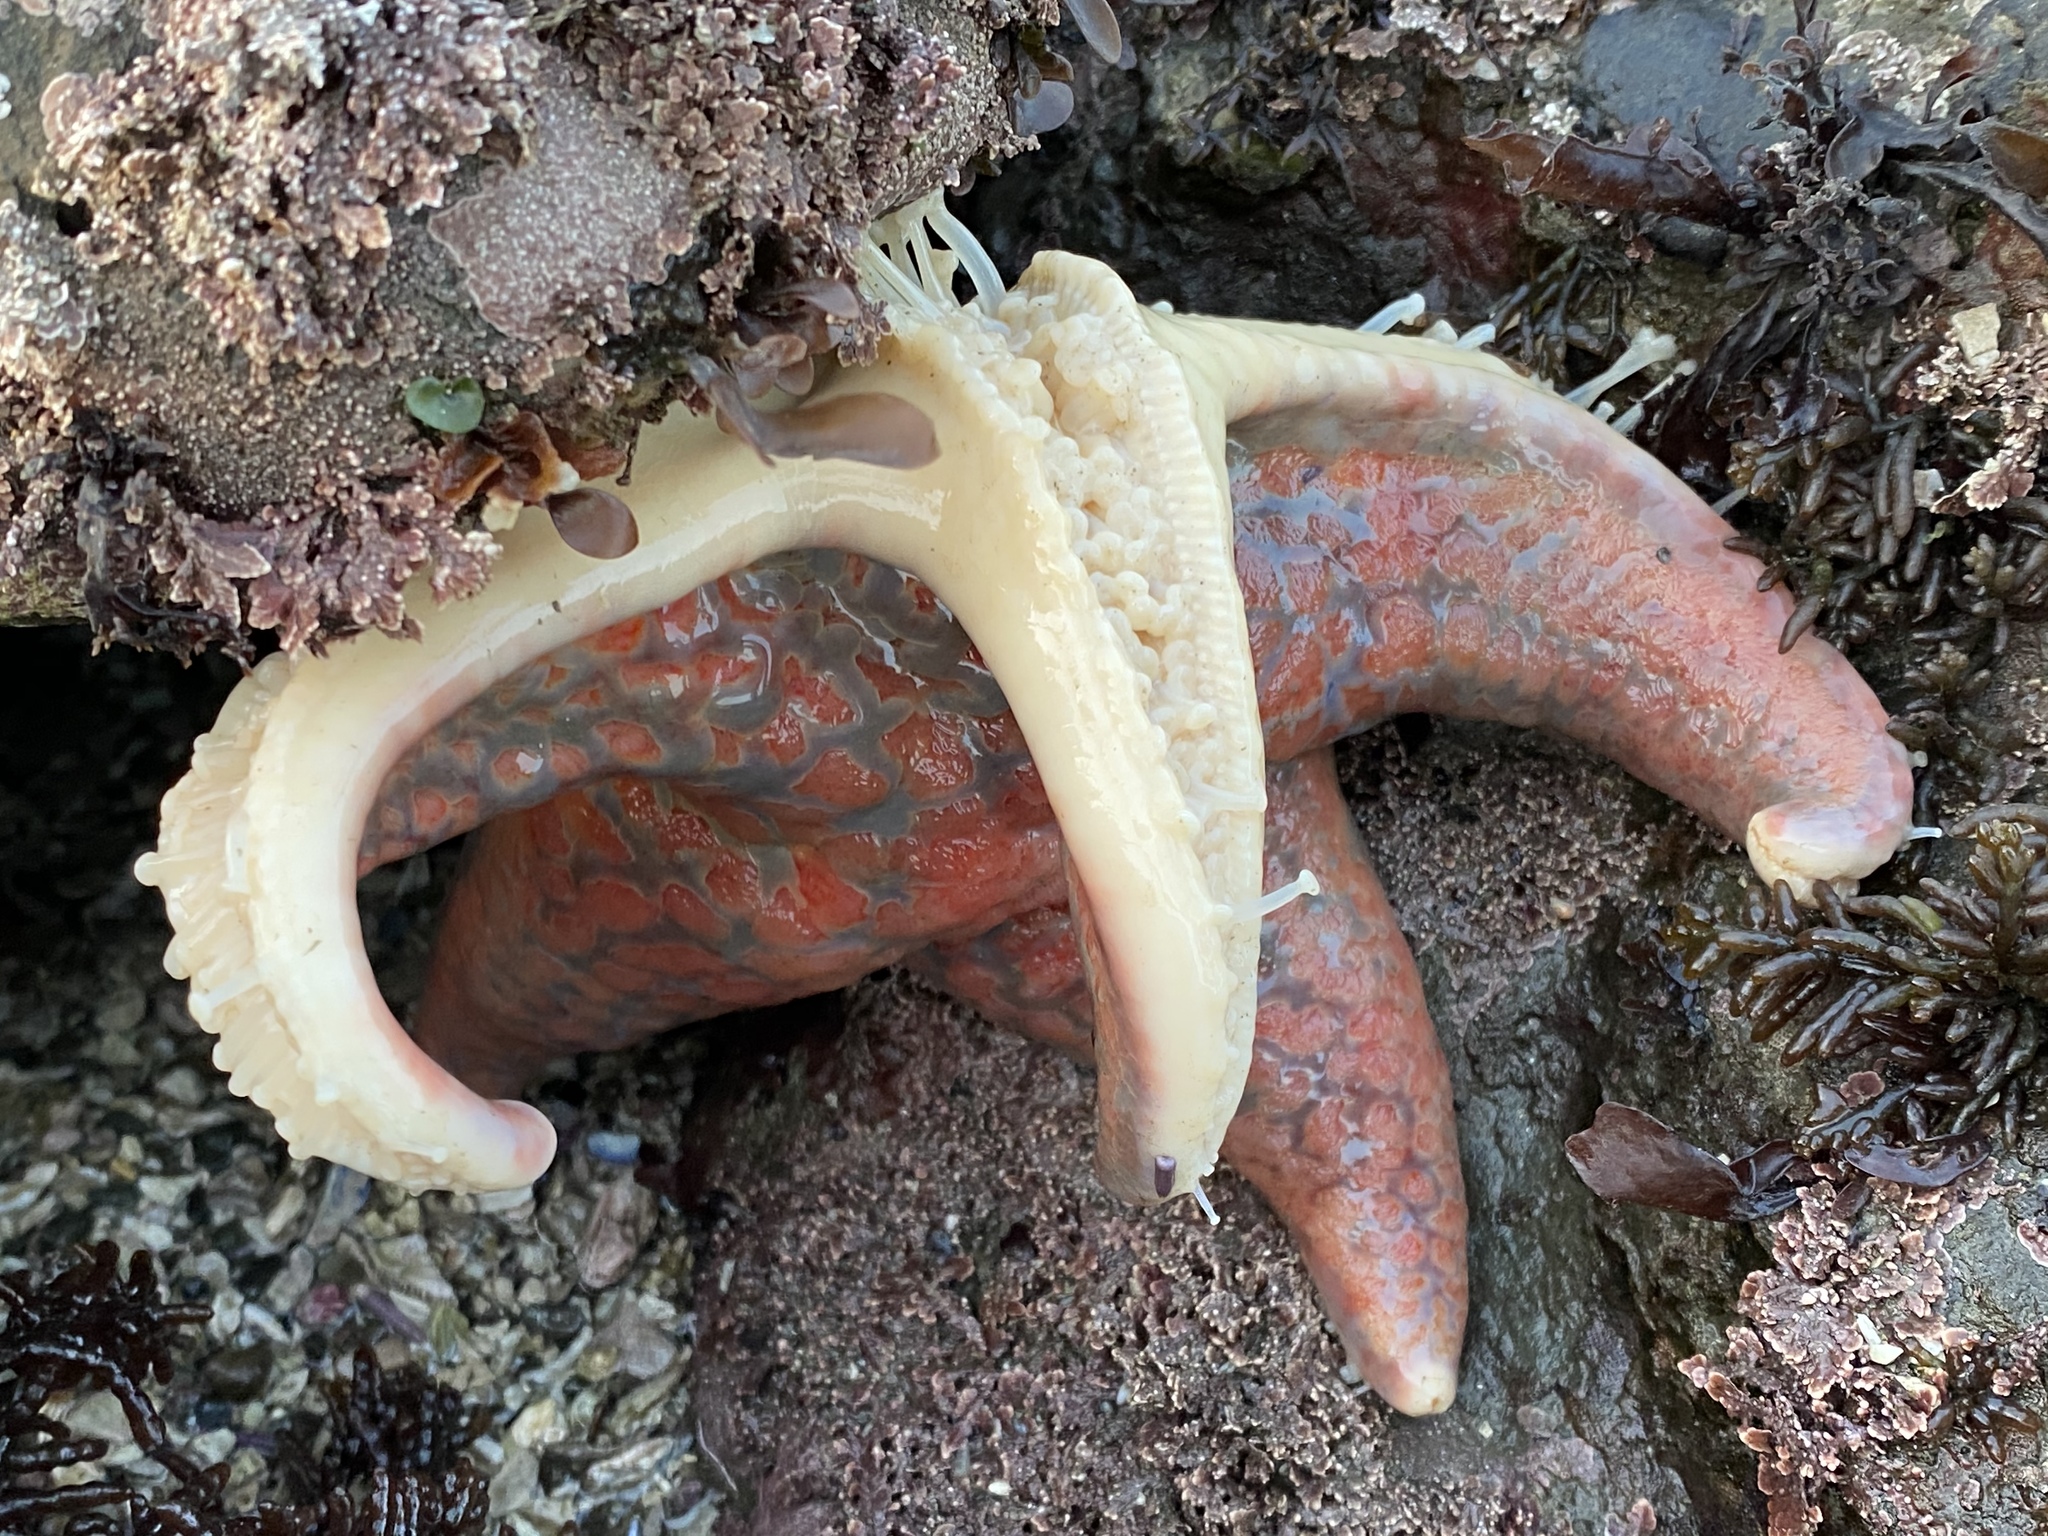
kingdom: Animalia
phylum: Echinodermata
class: Asteroidea
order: Valvatida
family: Asteropseidae
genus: Dermasterias
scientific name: Dermasterias imbricata
